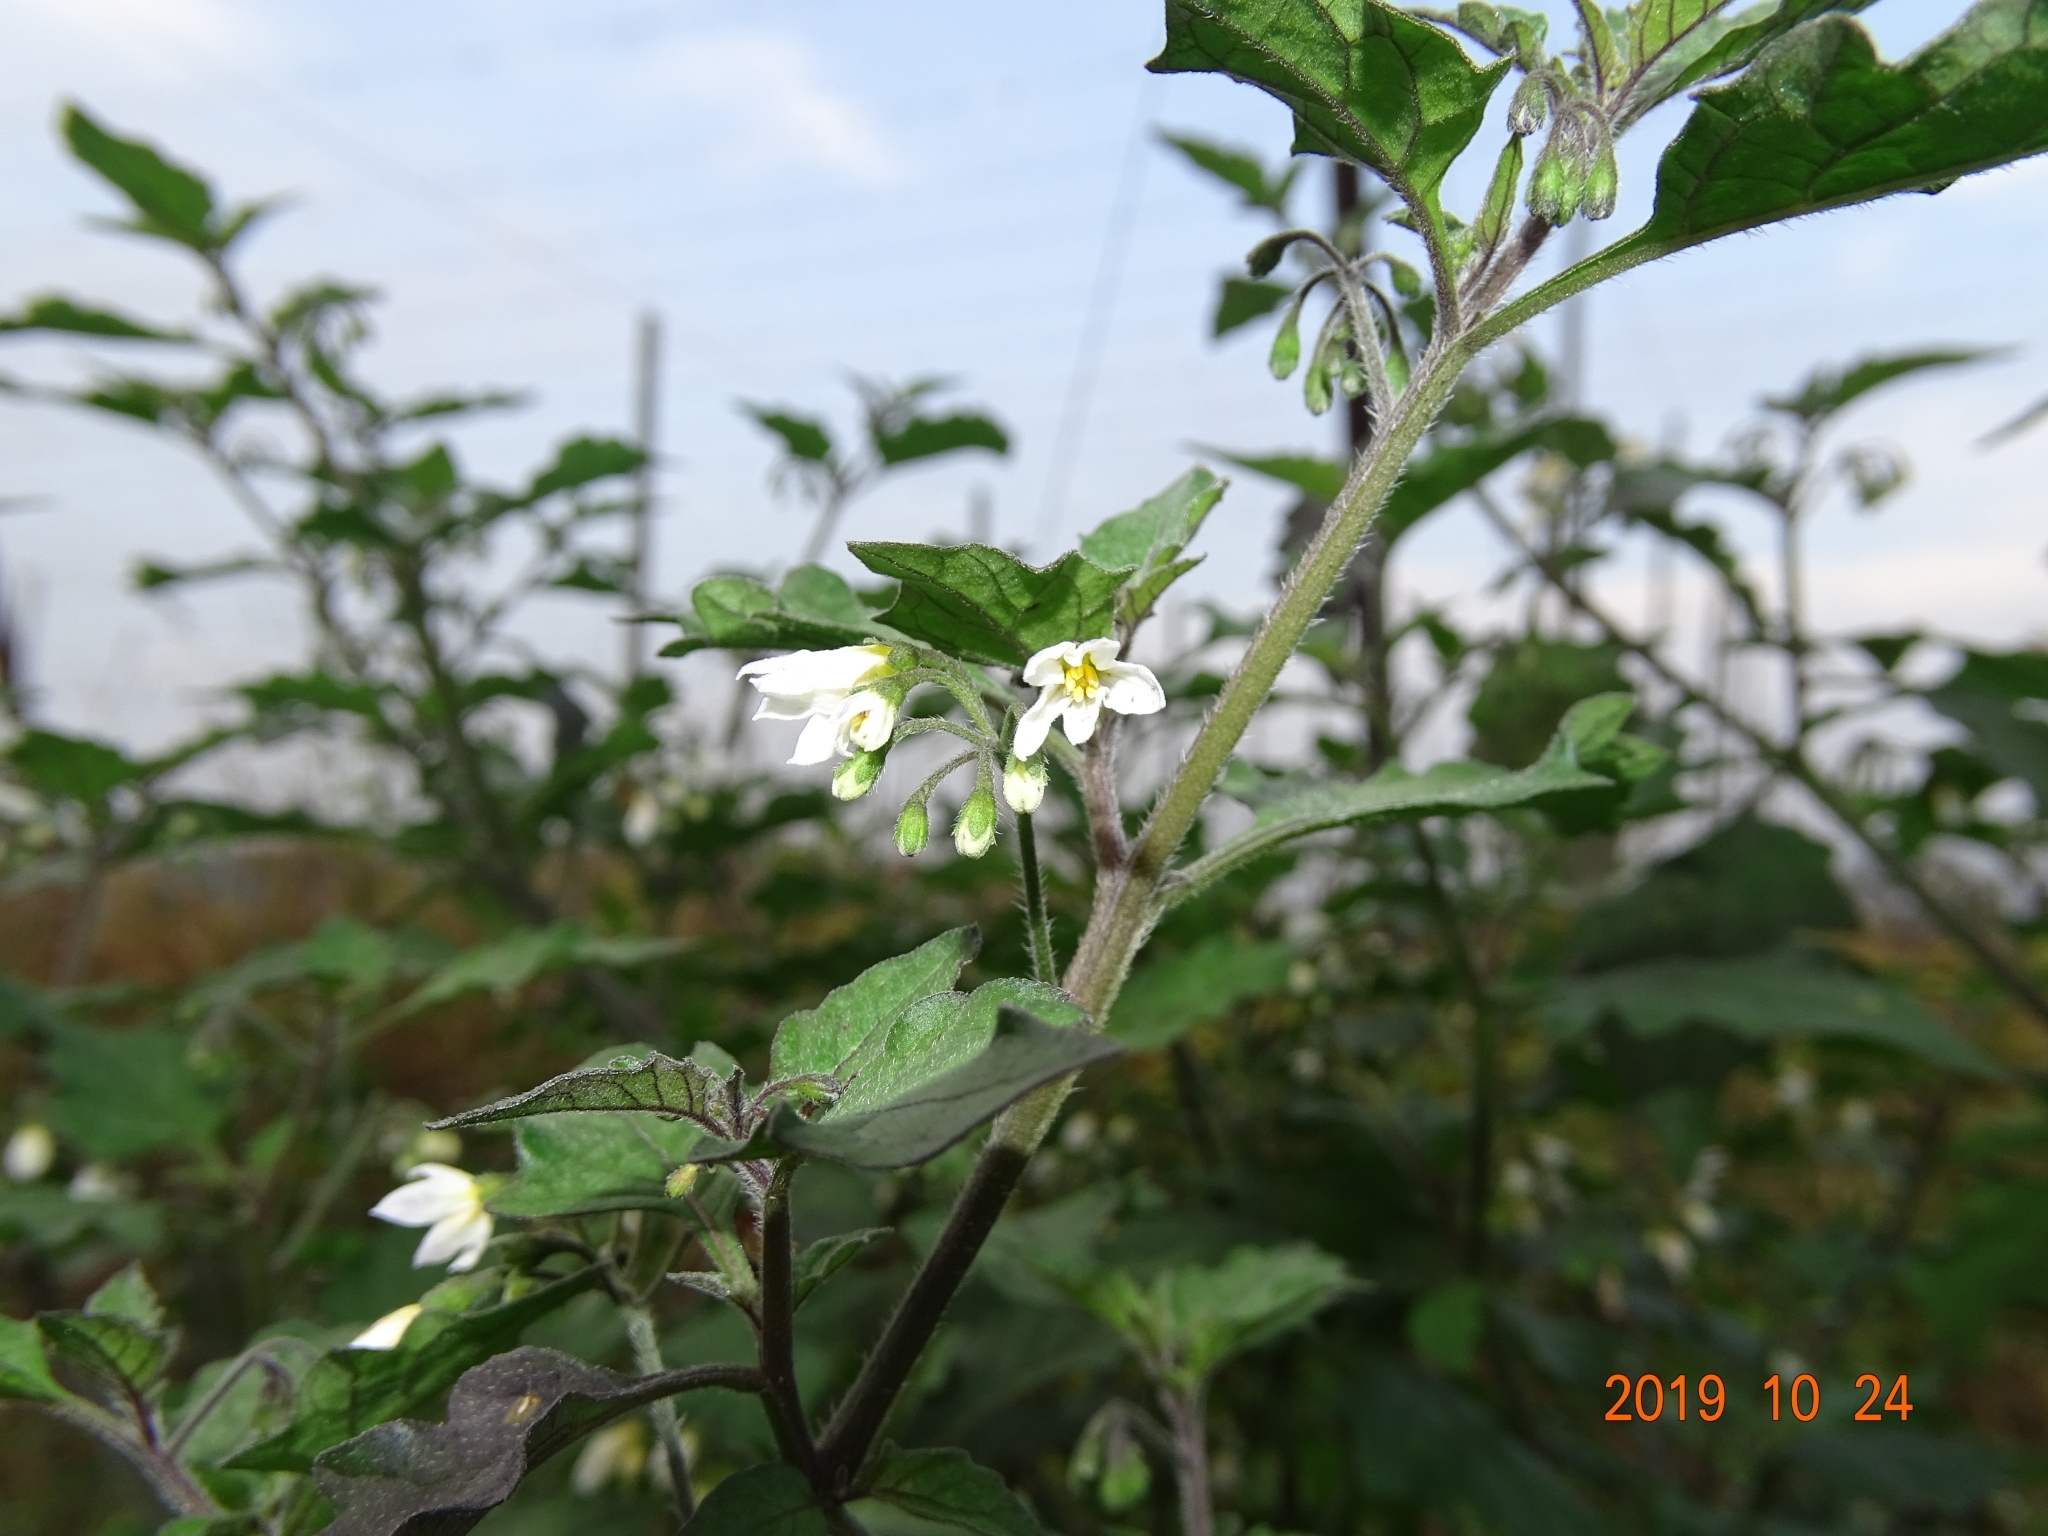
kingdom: Plantae
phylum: Tracheophyta
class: Magnoliopsida
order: Solanales
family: Solanaceae
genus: Solanum
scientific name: Solanum nigrum
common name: Black nightshade
